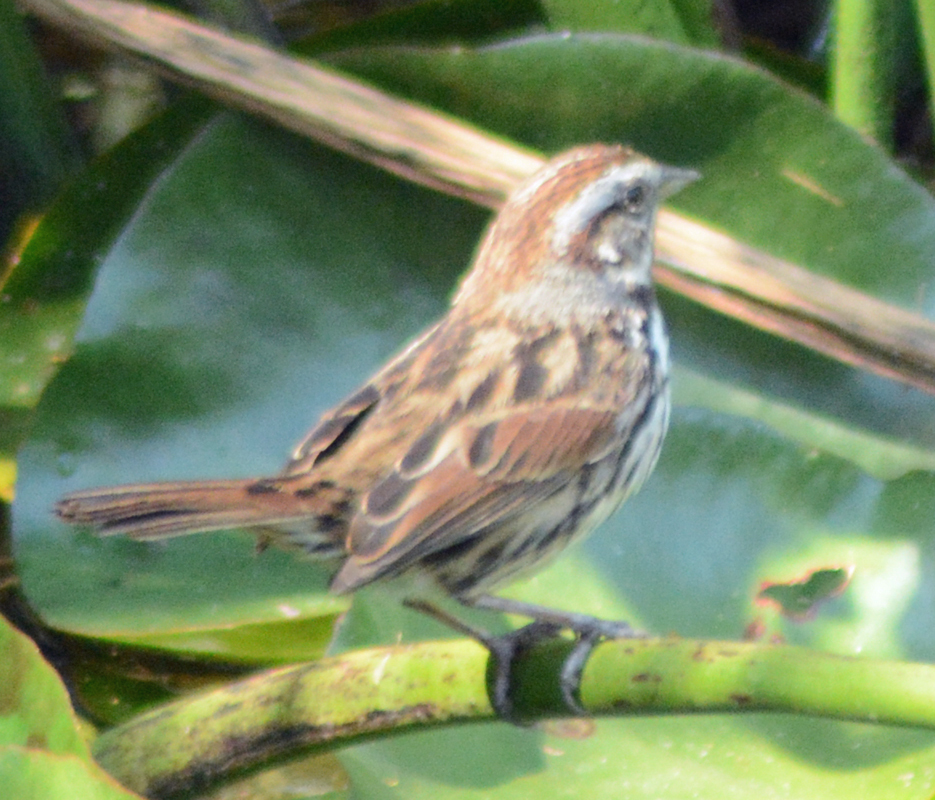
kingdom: Animalia
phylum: Chordata
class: Aves
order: Passeriformes
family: Passerellidae
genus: Melospiza
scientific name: Melospiza melodia
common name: Song sparrow
